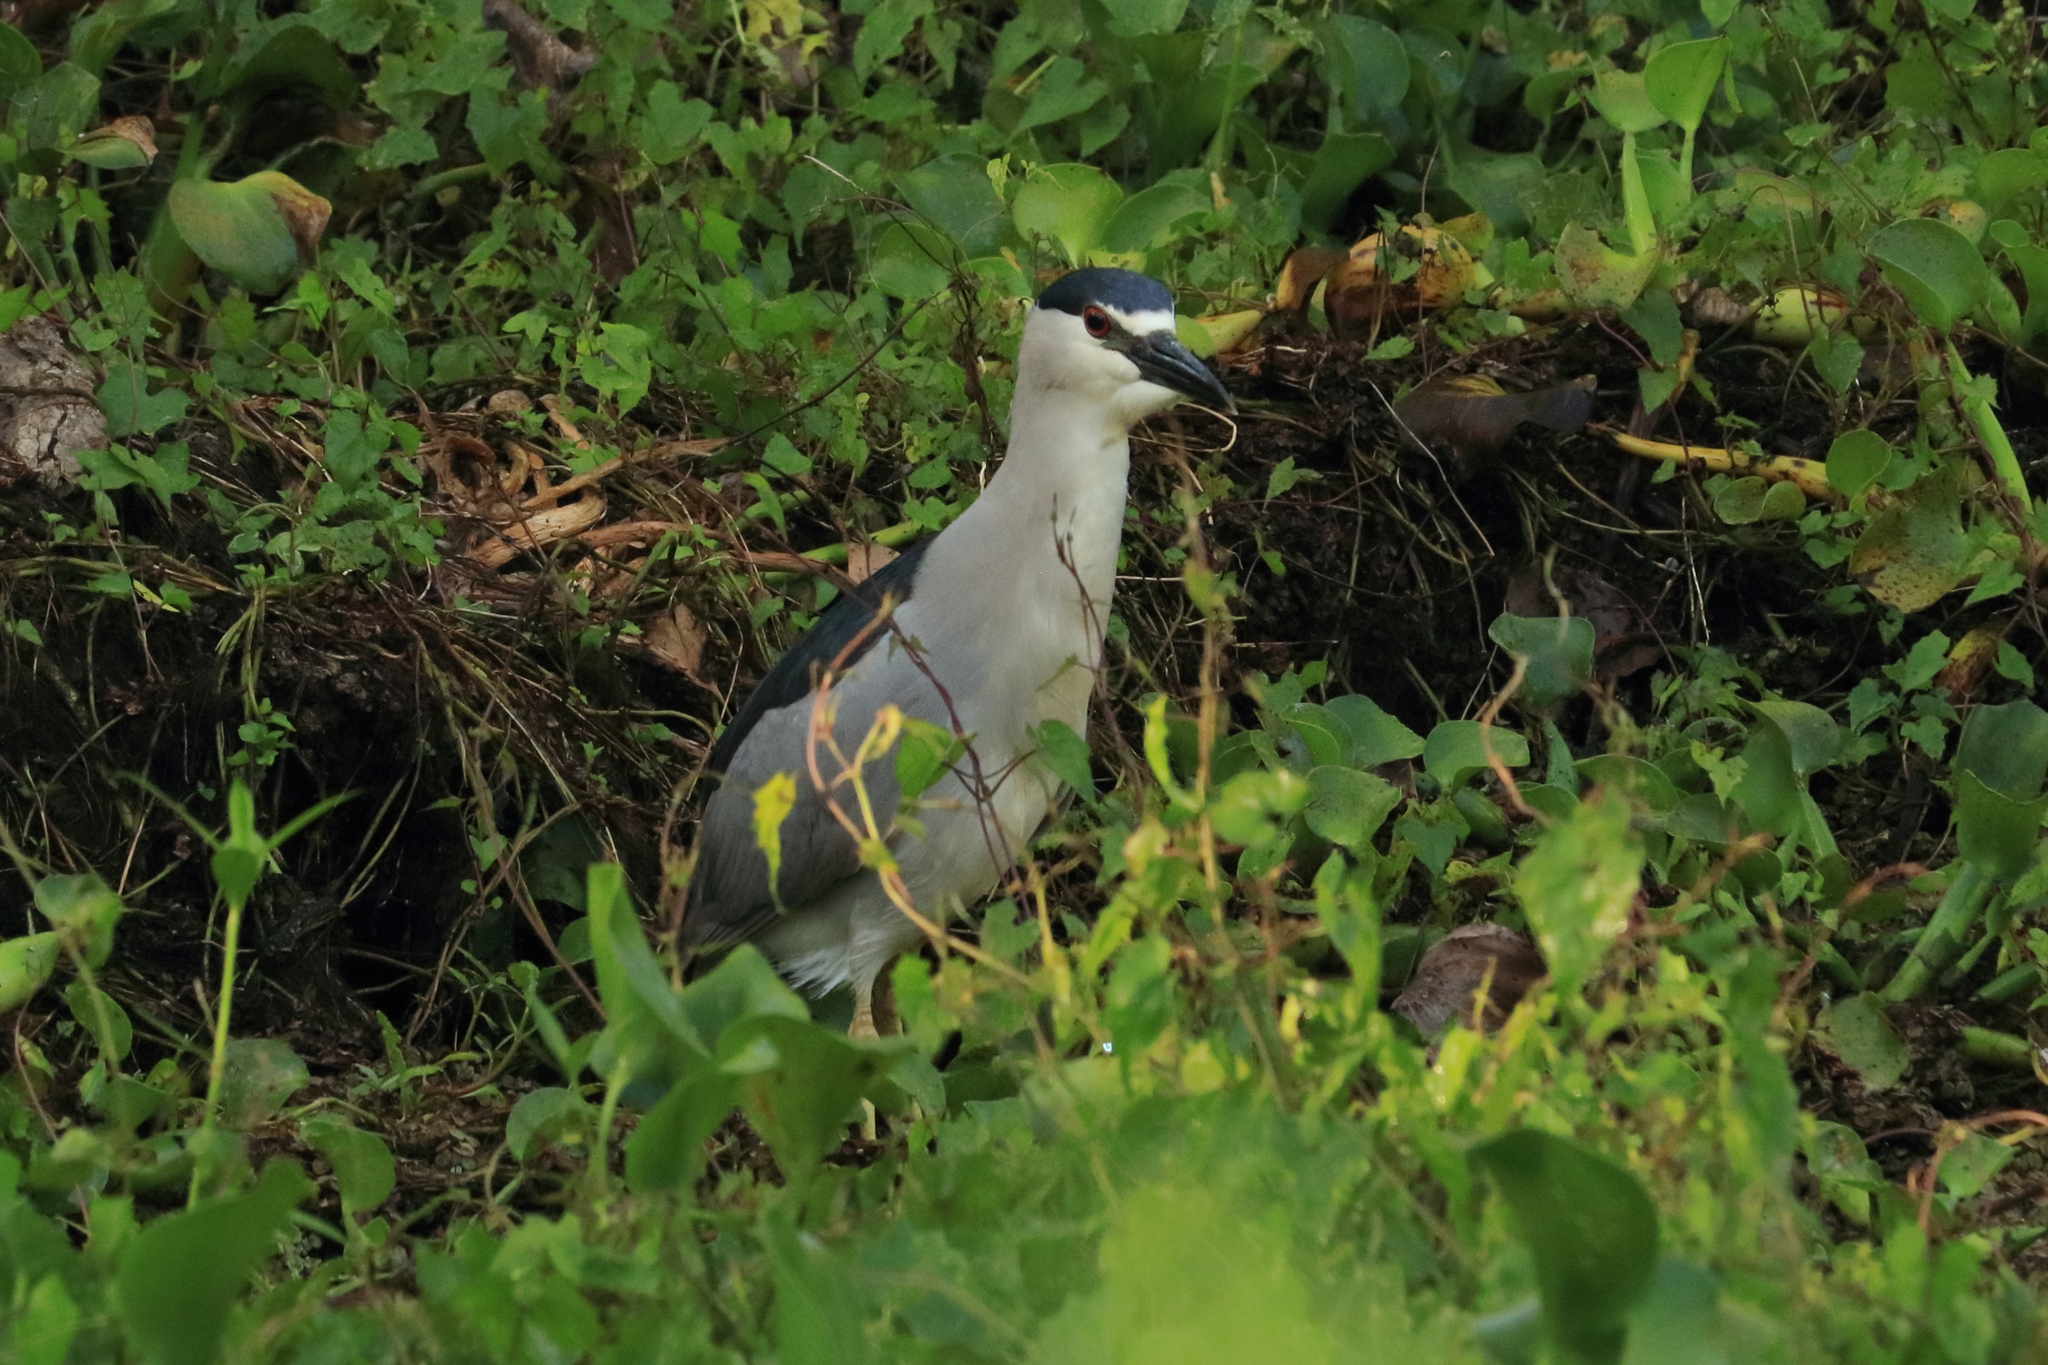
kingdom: Animalia
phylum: Chordata
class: Aves
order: Pelecaniformes
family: Ardeidae
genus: Nycticorax
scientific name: Nycticorax nycticorax
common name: Black-crowned night heron
